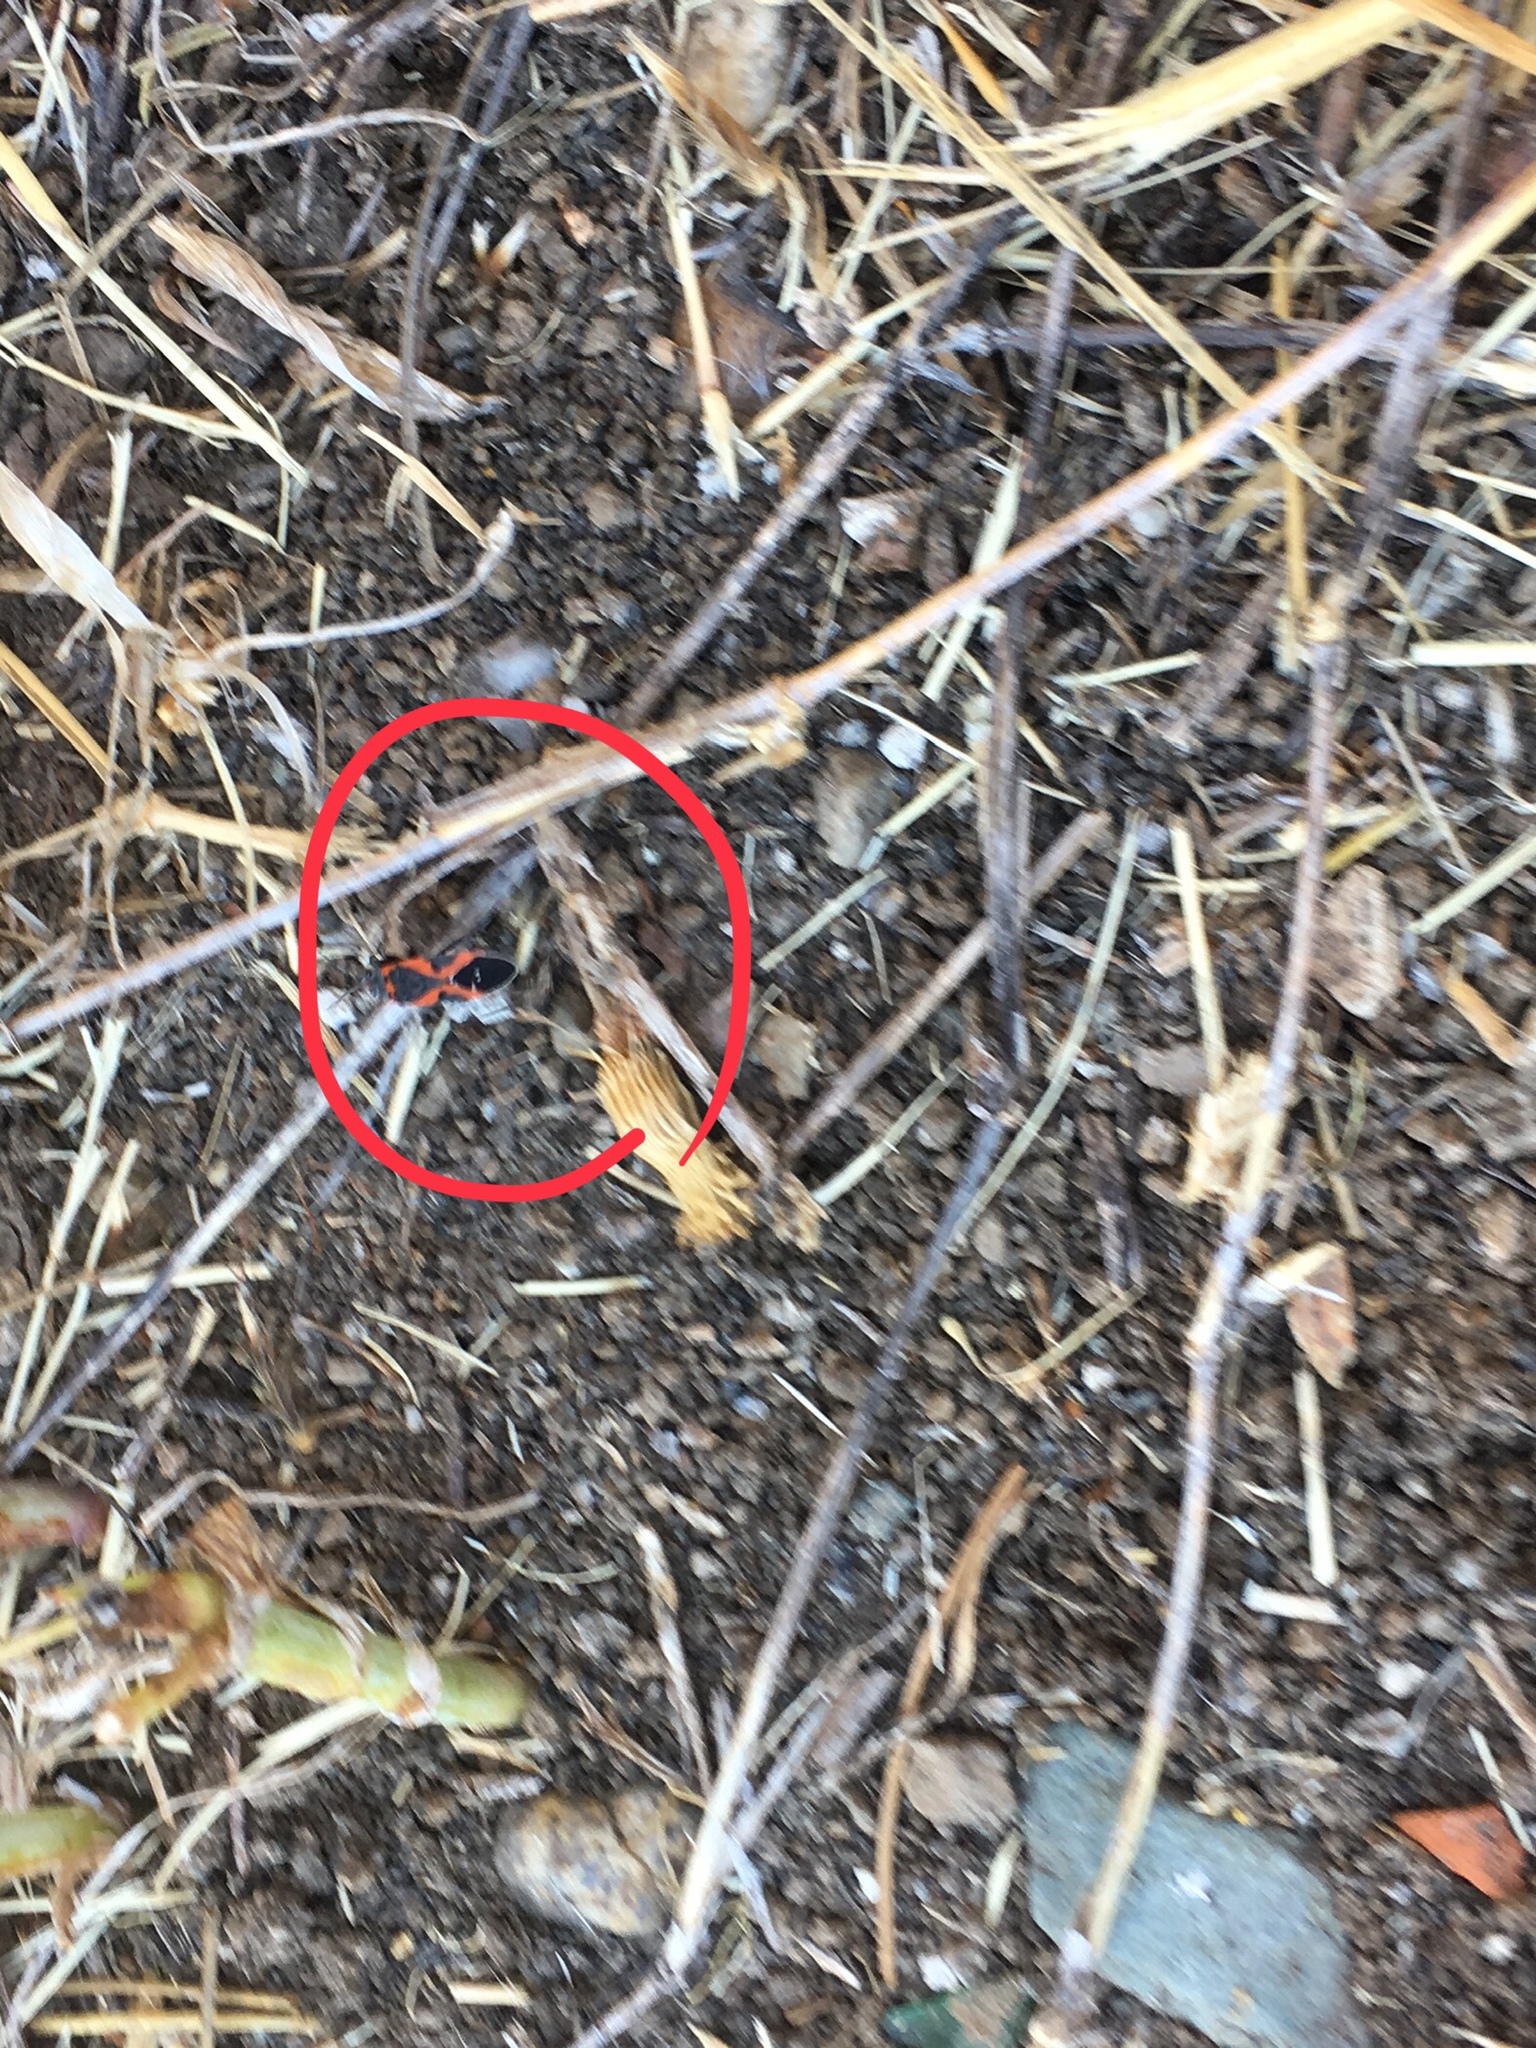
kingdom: Animalia
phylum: Arthropoda
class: Insecta
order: Hemiptera
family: Lygaeidae
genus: Lygaeus
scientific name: Lygaeus kalmii
